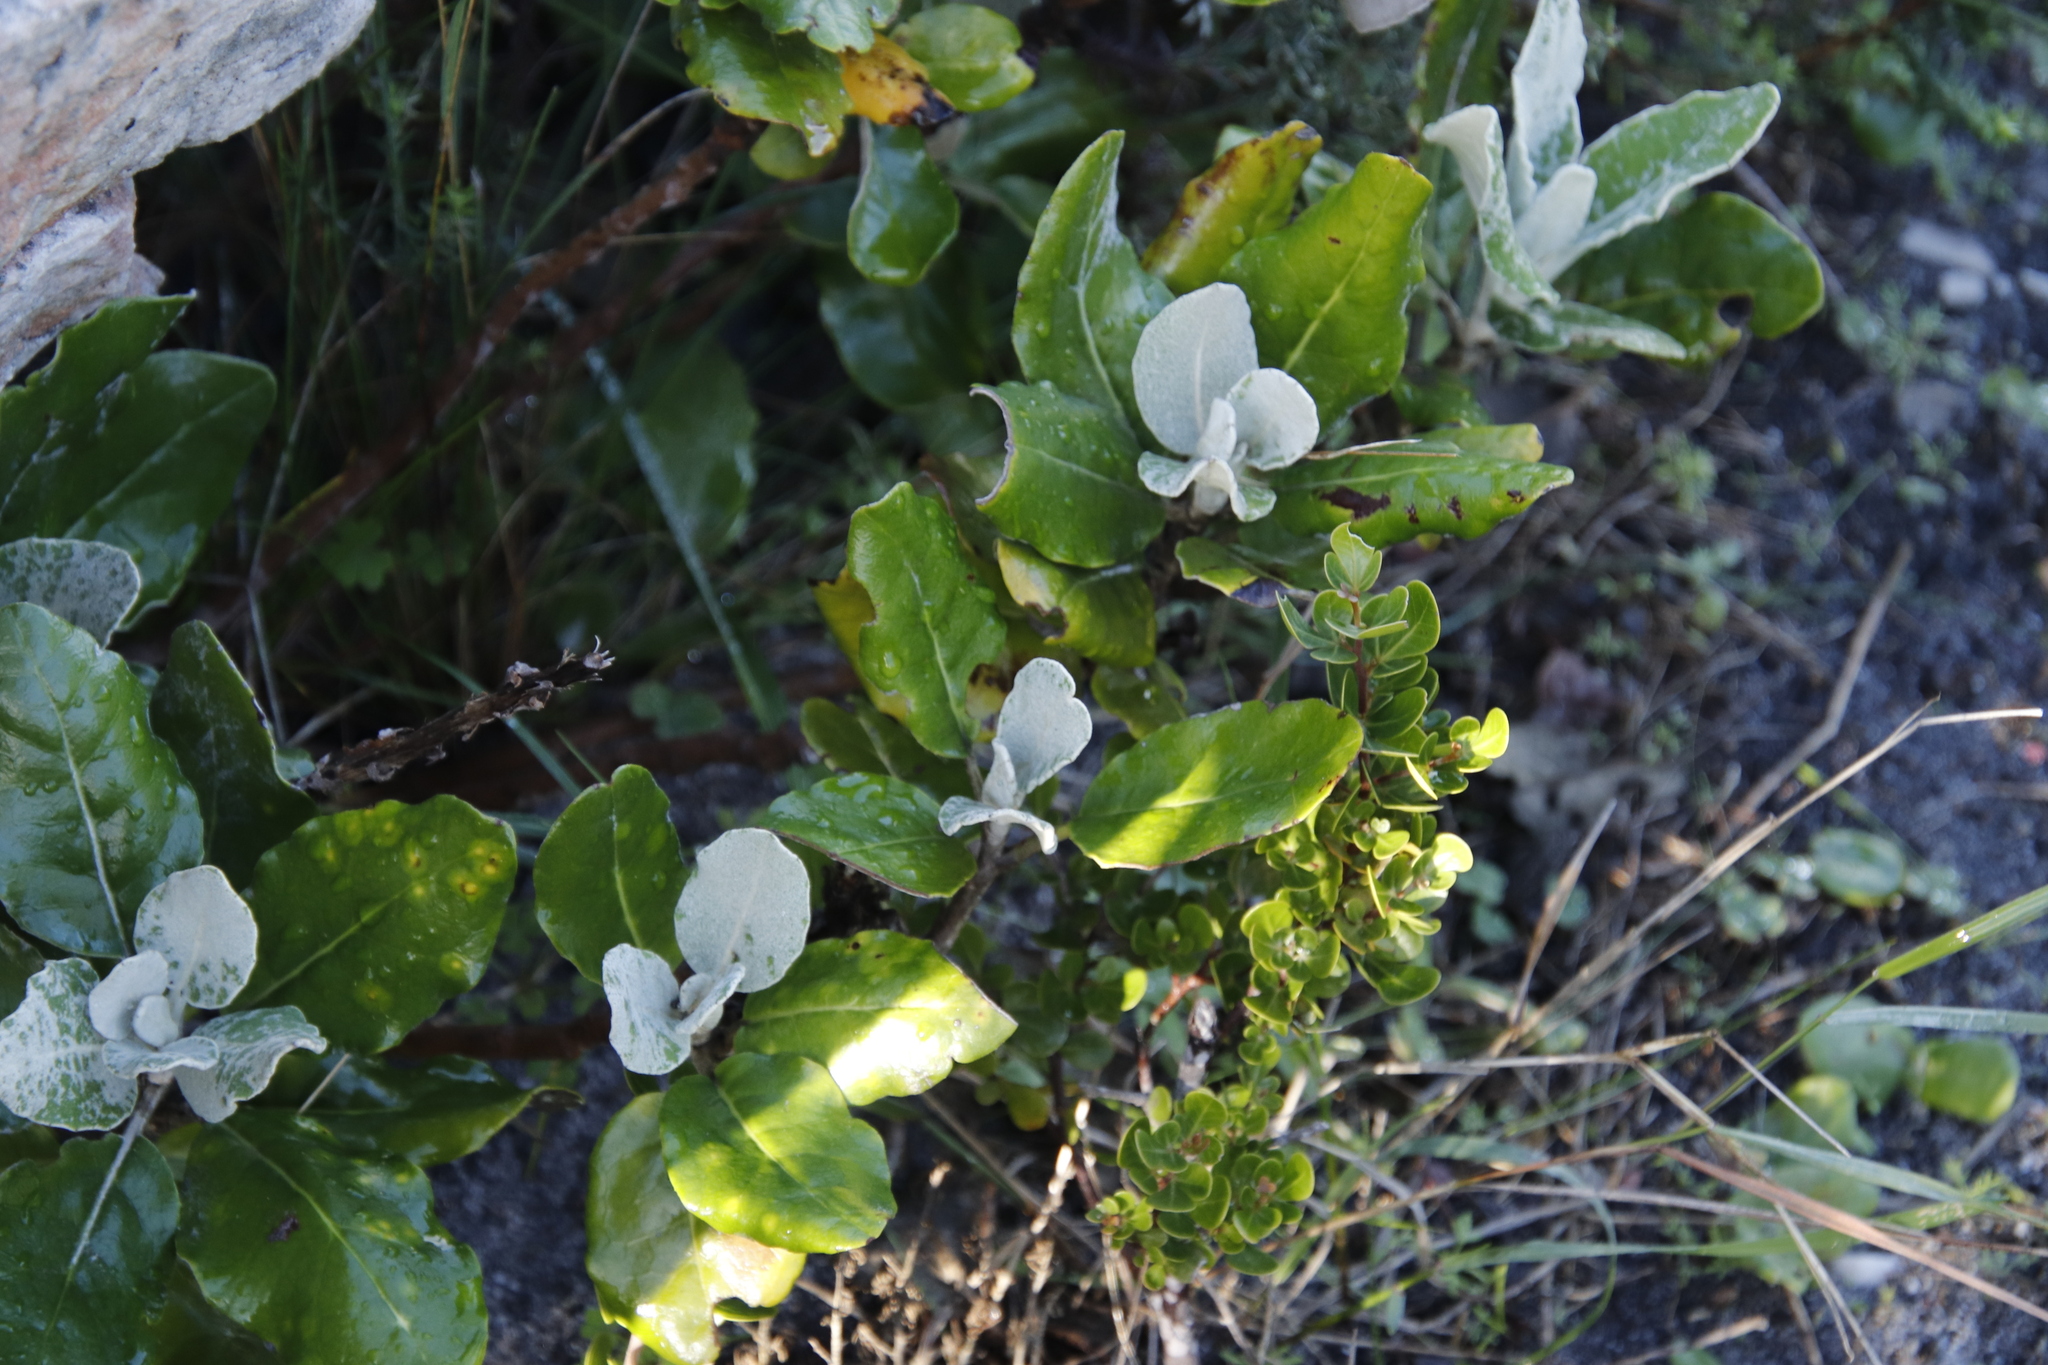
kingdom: Plantae
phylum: Tracheophyta
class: Magnoliopsida
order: Asterales
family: Asteraceae
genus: Capelio
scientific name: Capelio tabularis
